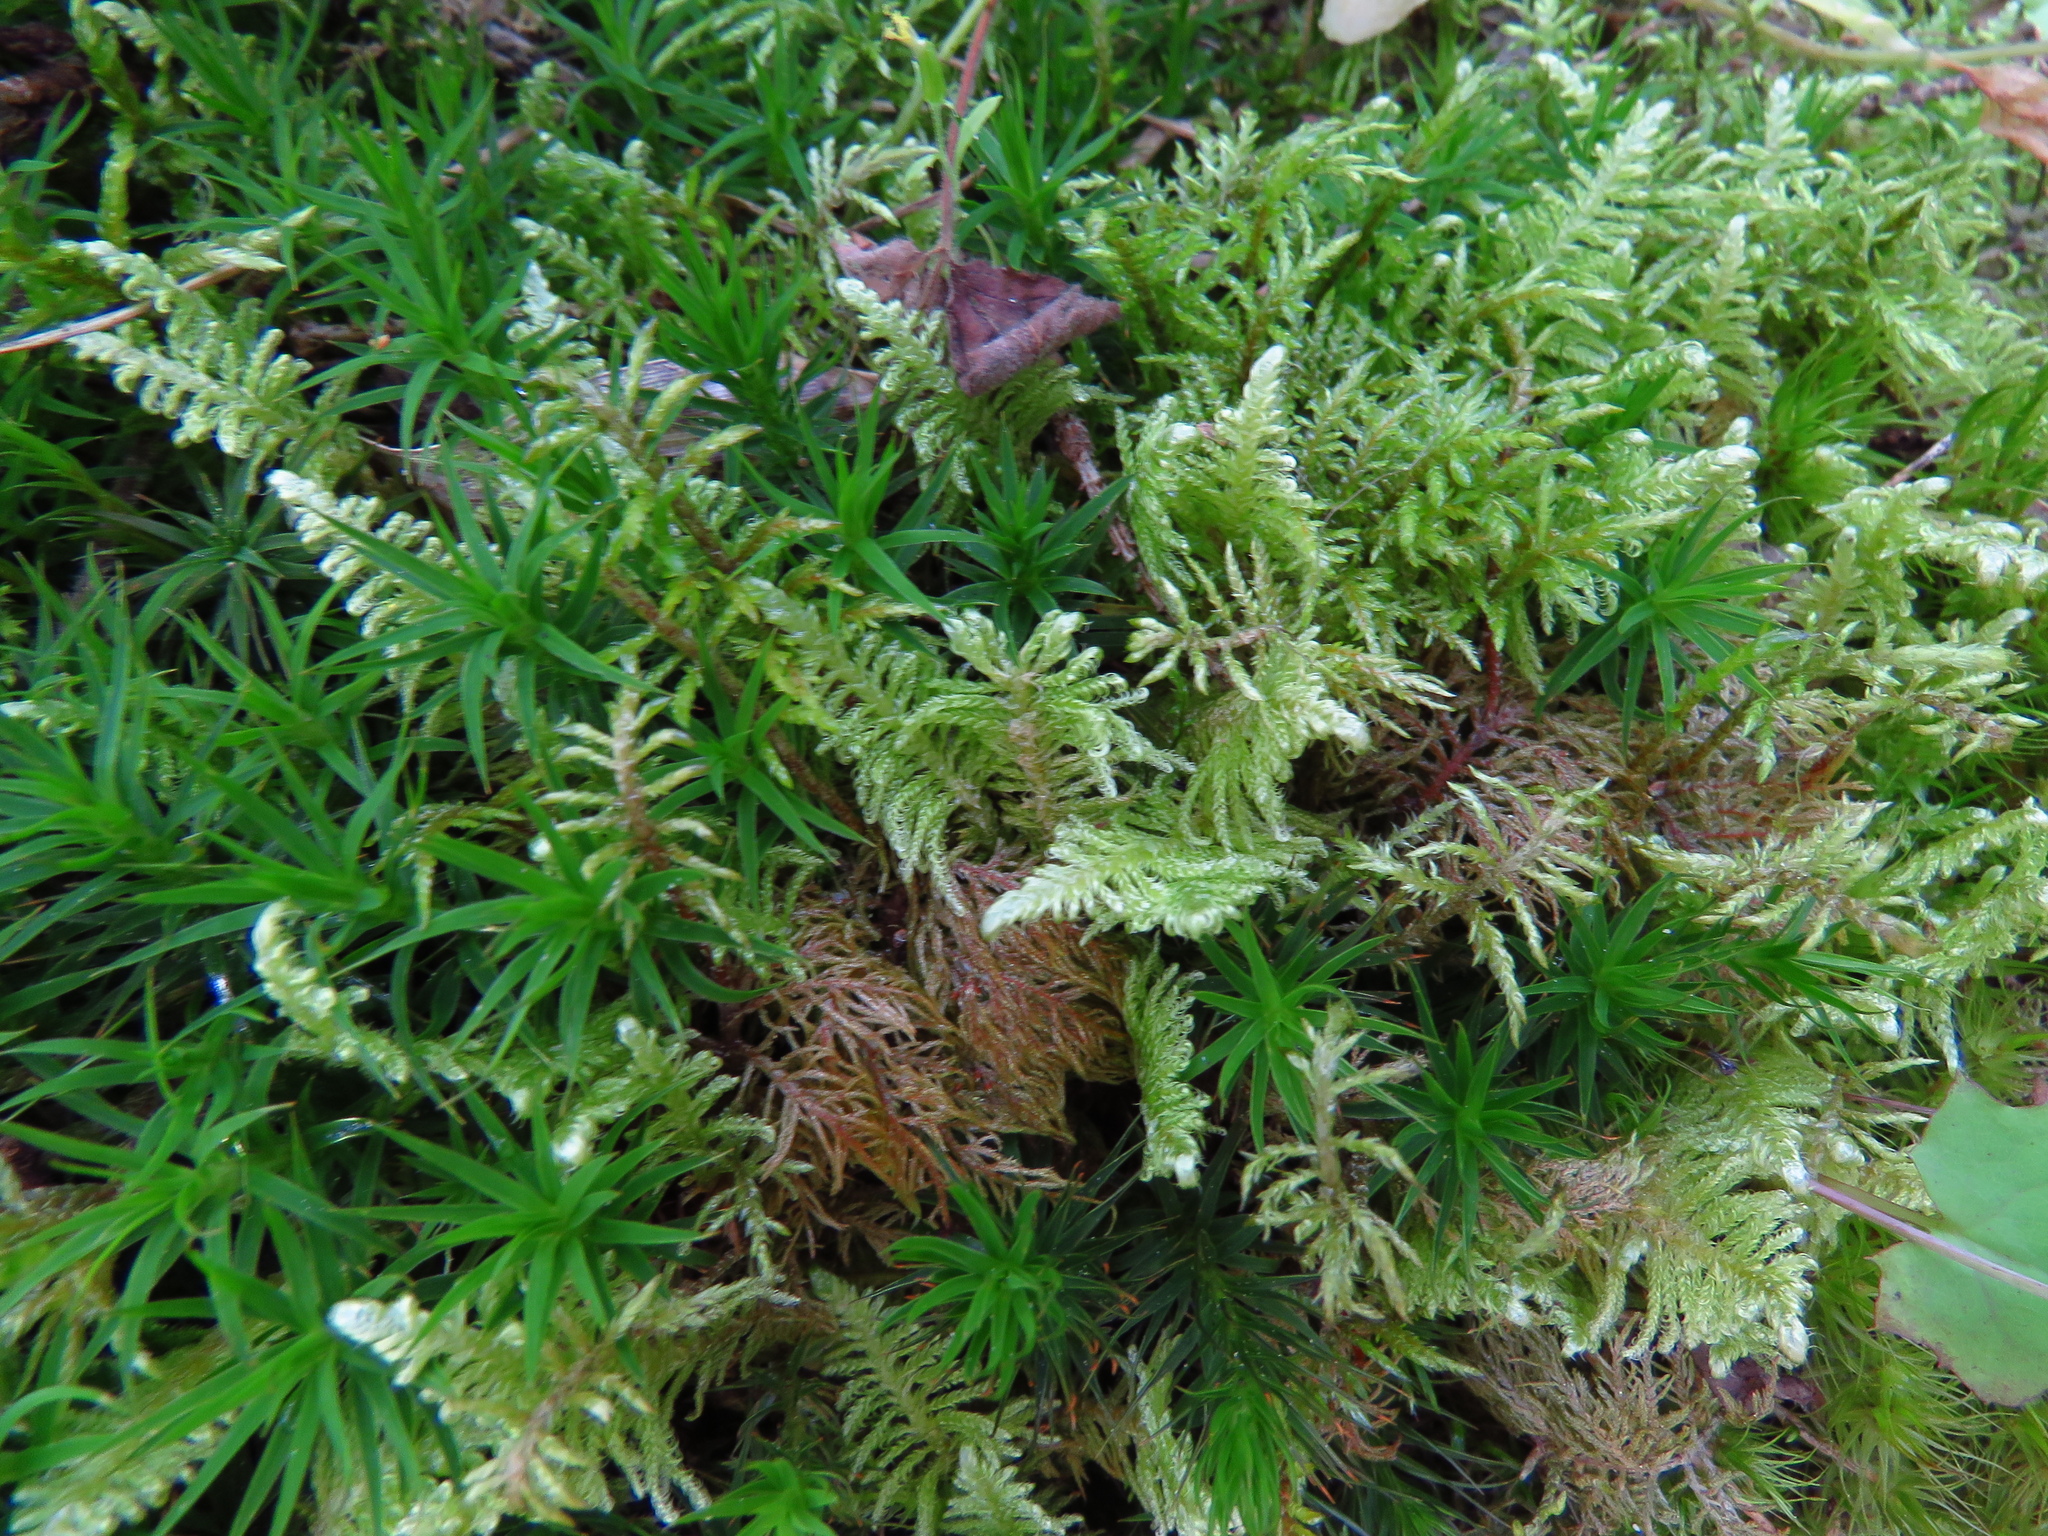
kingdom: Plantae
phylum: Bryophyta
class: Bryopsida
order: Hypnales
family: Hylocomiaceae
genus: Hylocomium
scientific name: Hylocomium splendens
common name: Stairstep moss
